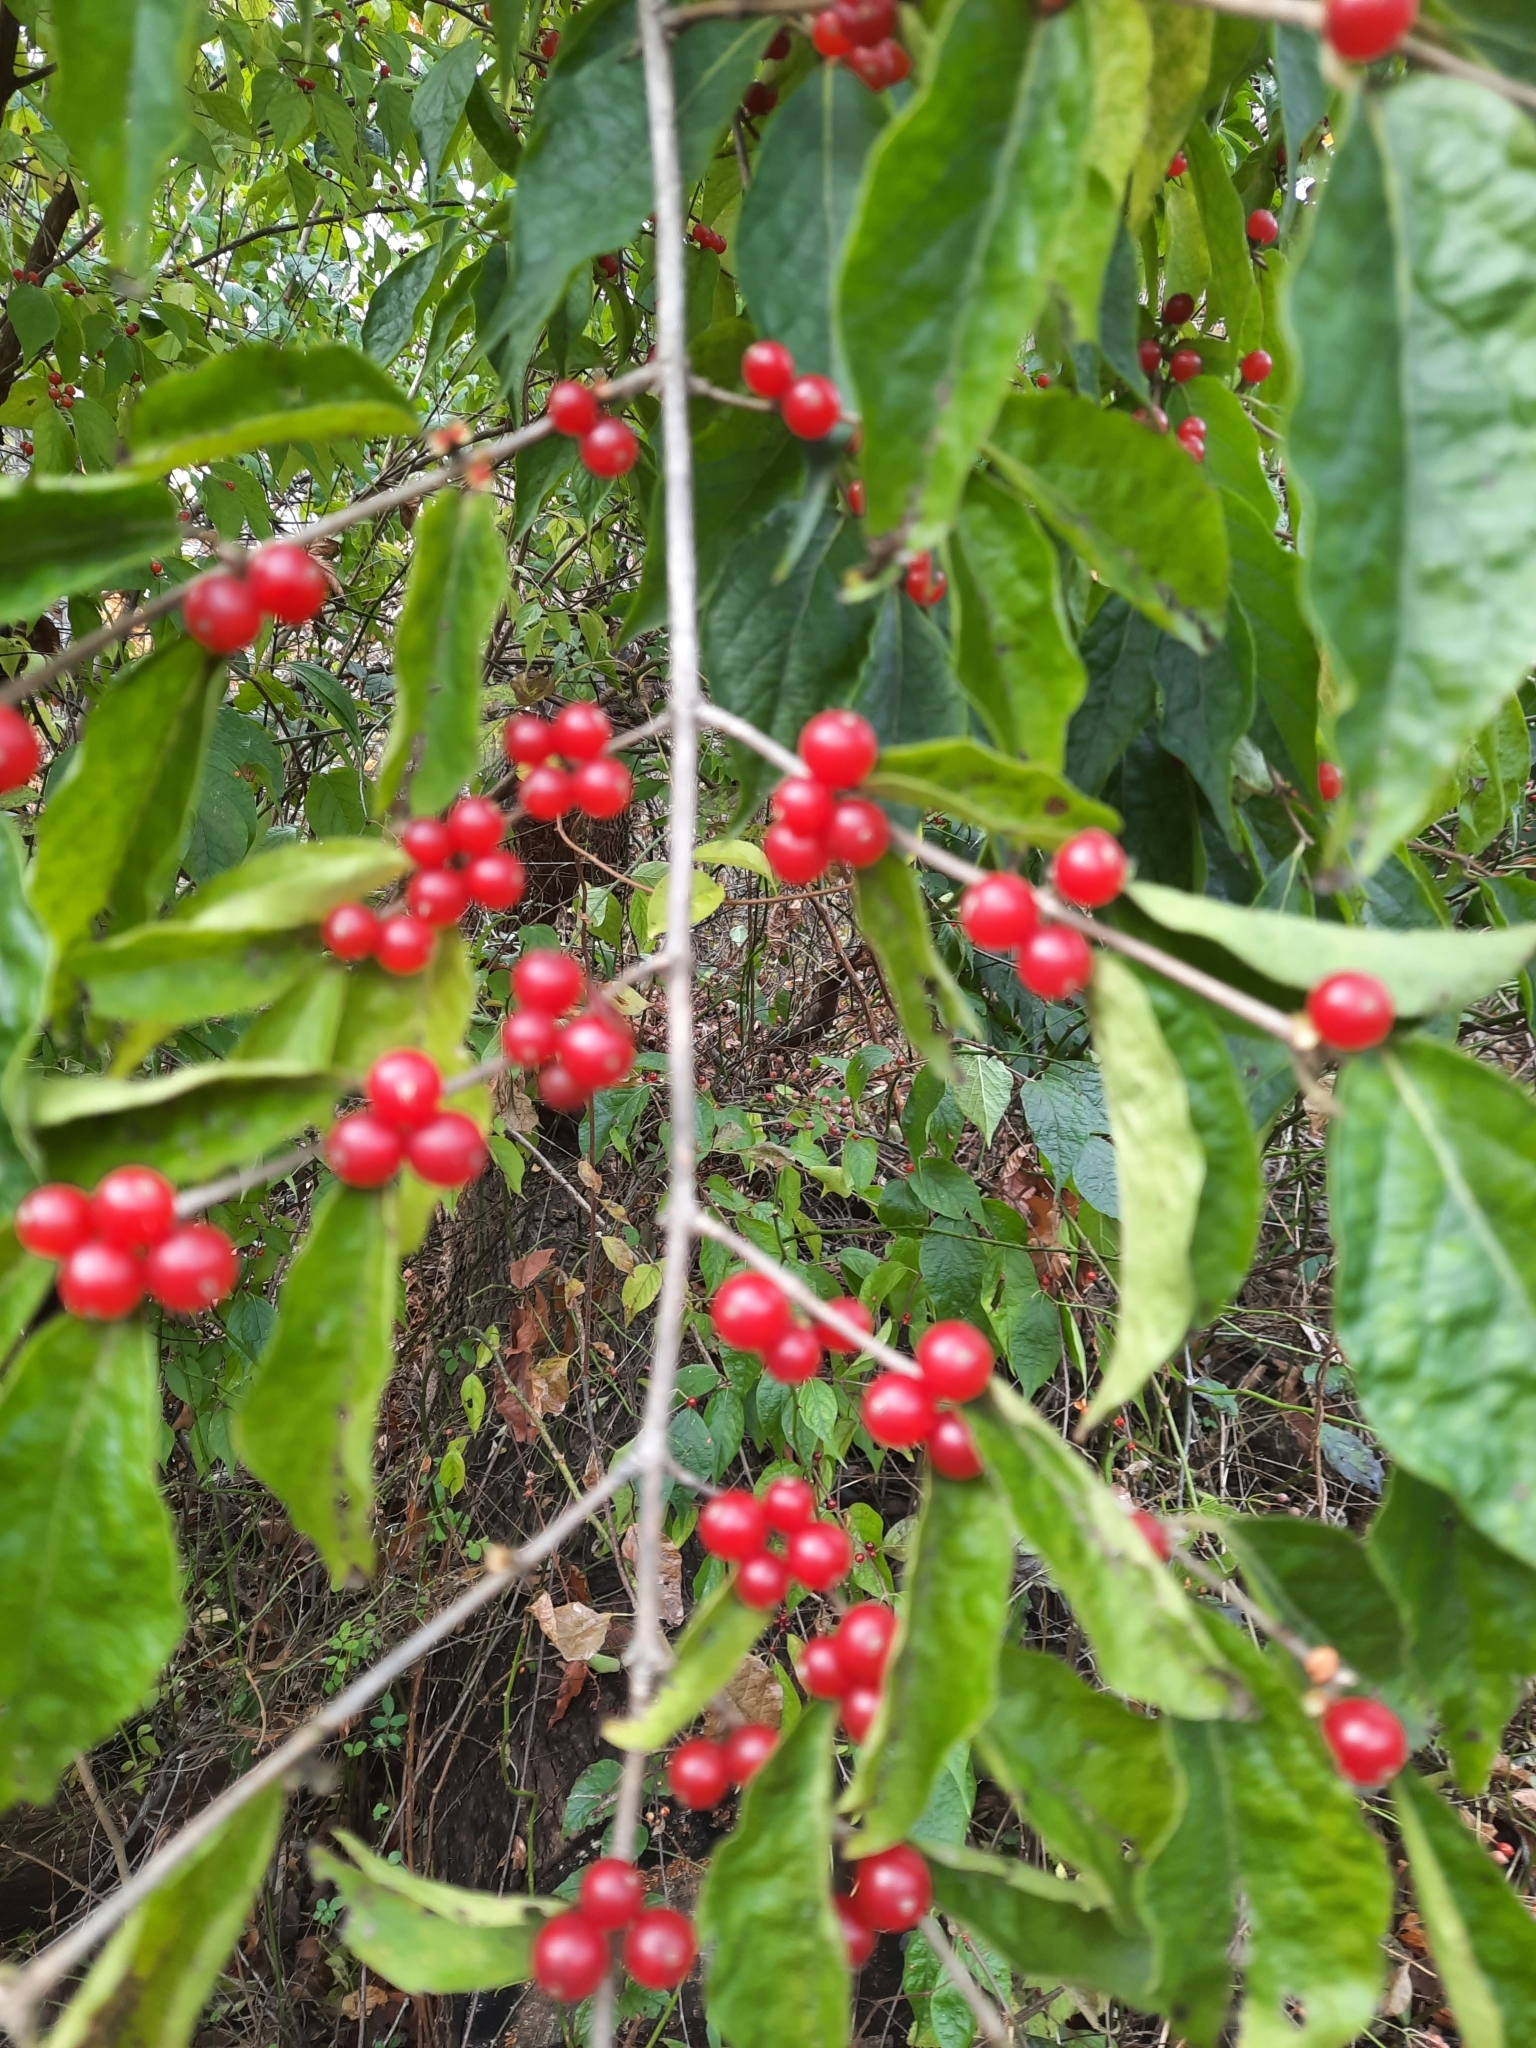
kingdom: Plantae
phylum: Tracheophyta
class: Magnoliopsida
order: Dipsacales
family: Caprifoliaceae
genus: Lonicera
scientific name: Lonicera maackii
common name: Amur honeysuckle
